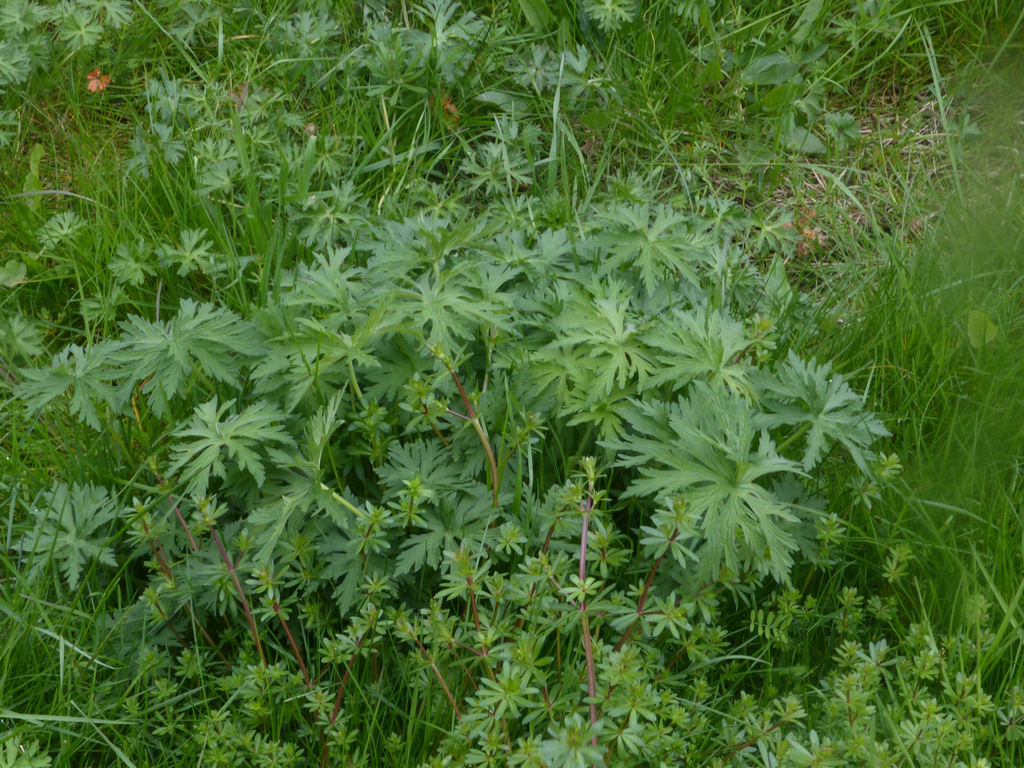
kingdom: Plantae
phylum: Tracheophyta
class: Magnoliopsida
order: Geraniales
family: Geraniaceae
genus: Geranium
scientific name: Geranium pratense
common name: Meadow crane's-bill
